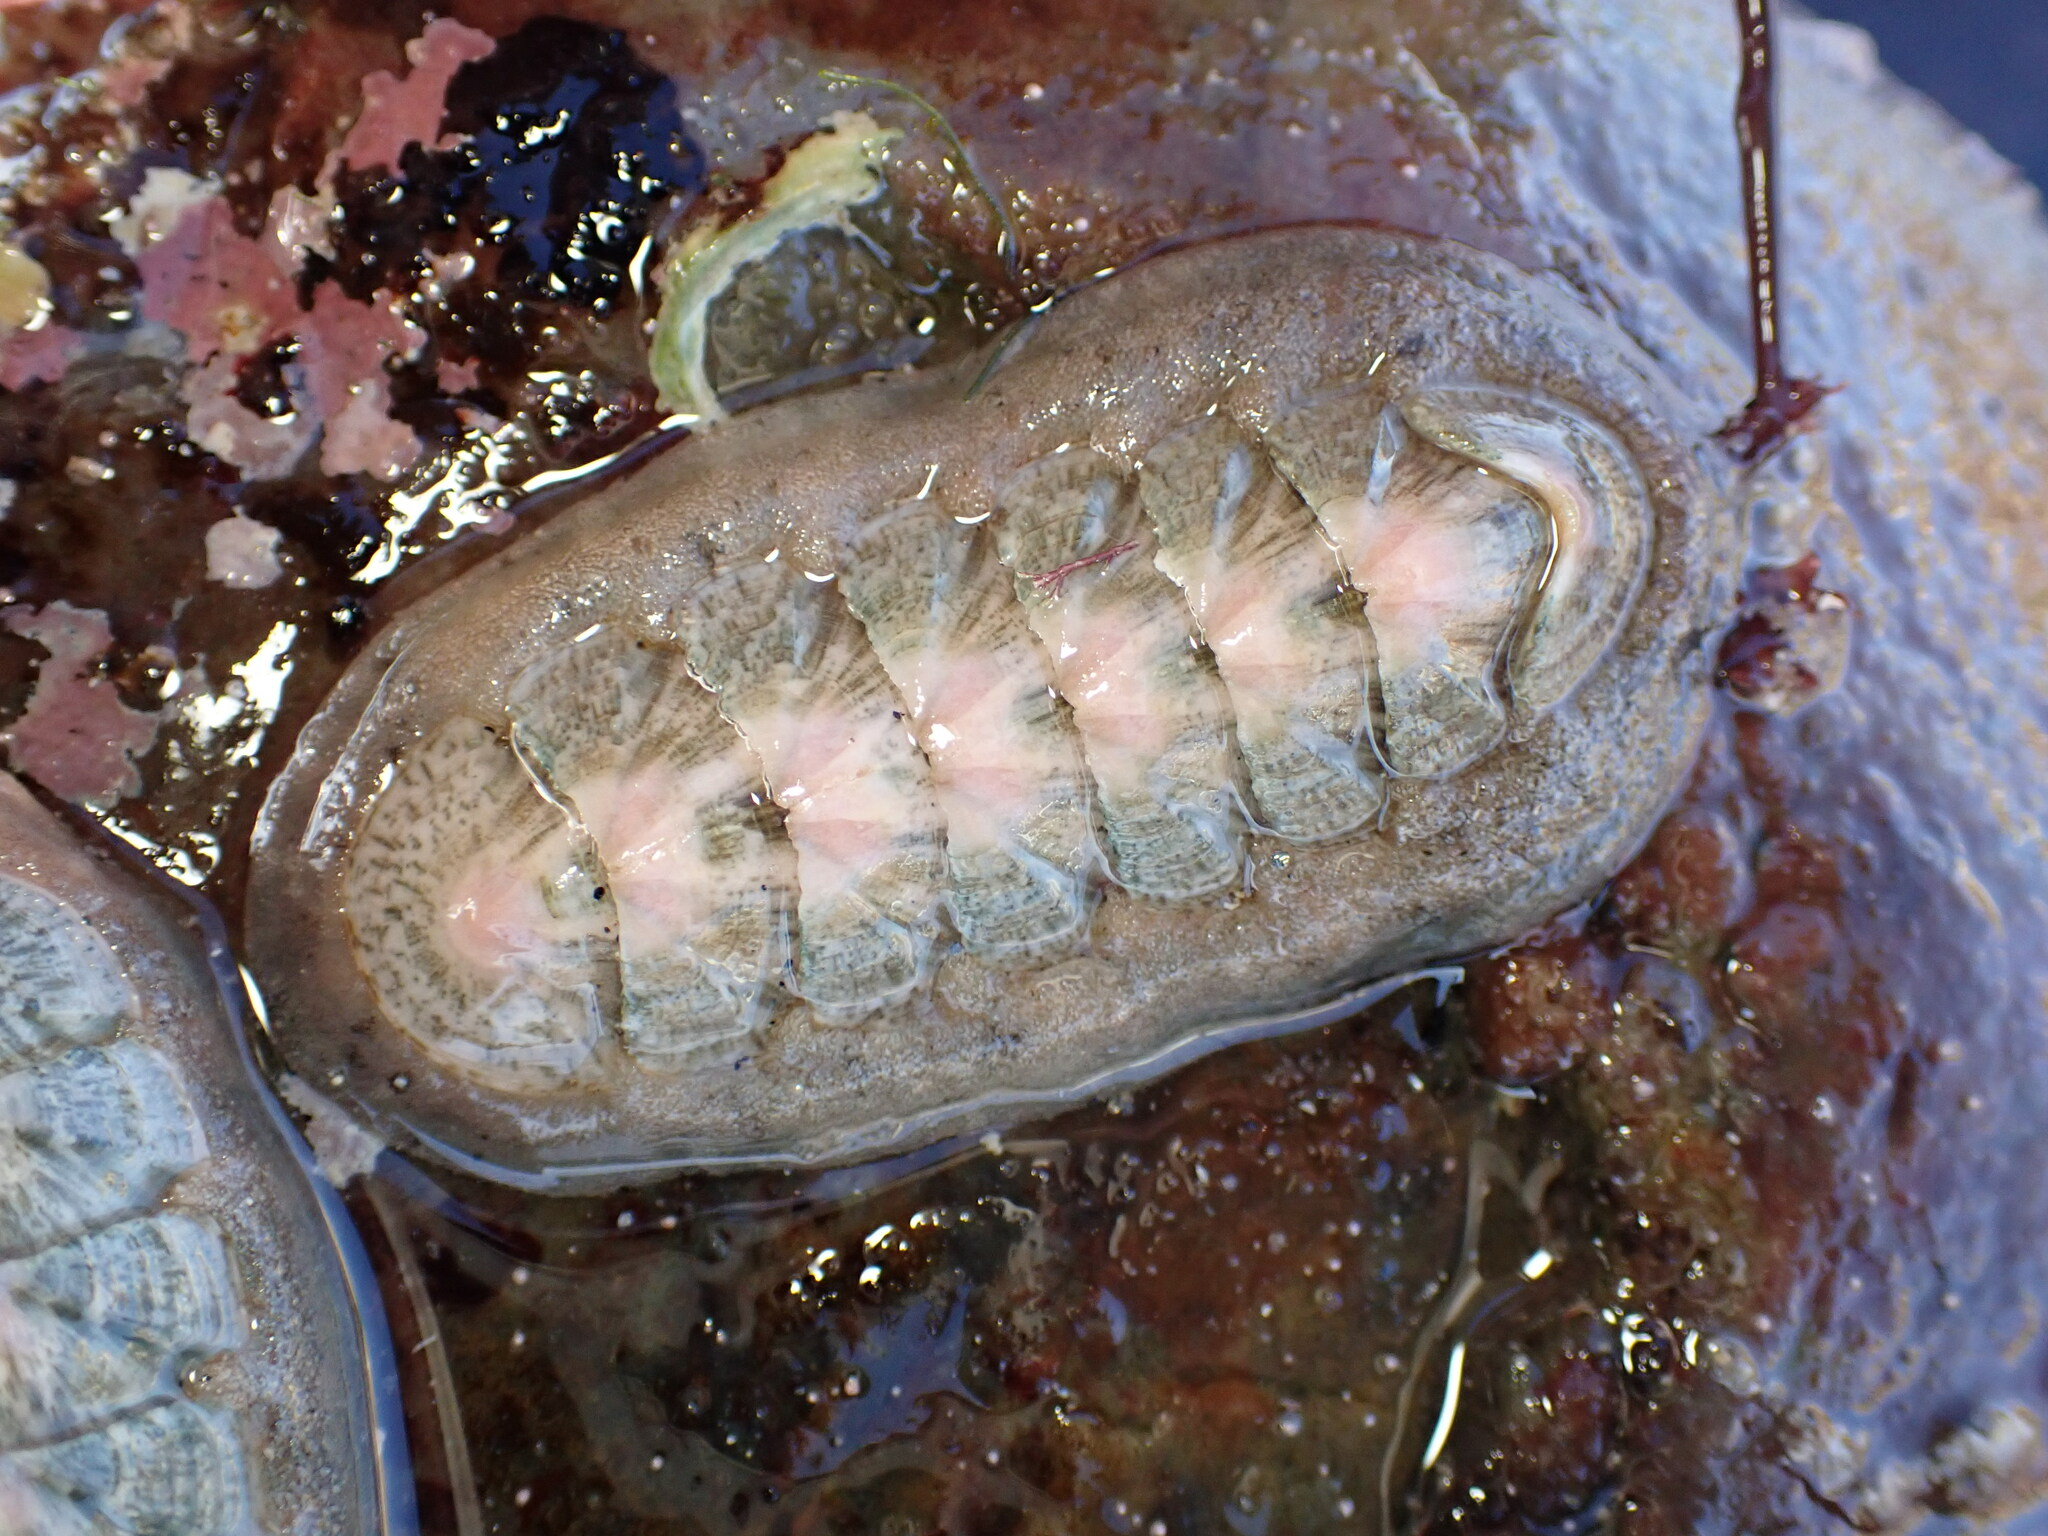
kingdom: Animalia
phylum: Mollusca
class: Polyplacophora
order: Chitonida
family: Ischnochitonidae
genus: Stenoplax
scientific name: Stenoplax conspicua
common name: Conspicuous chiton
